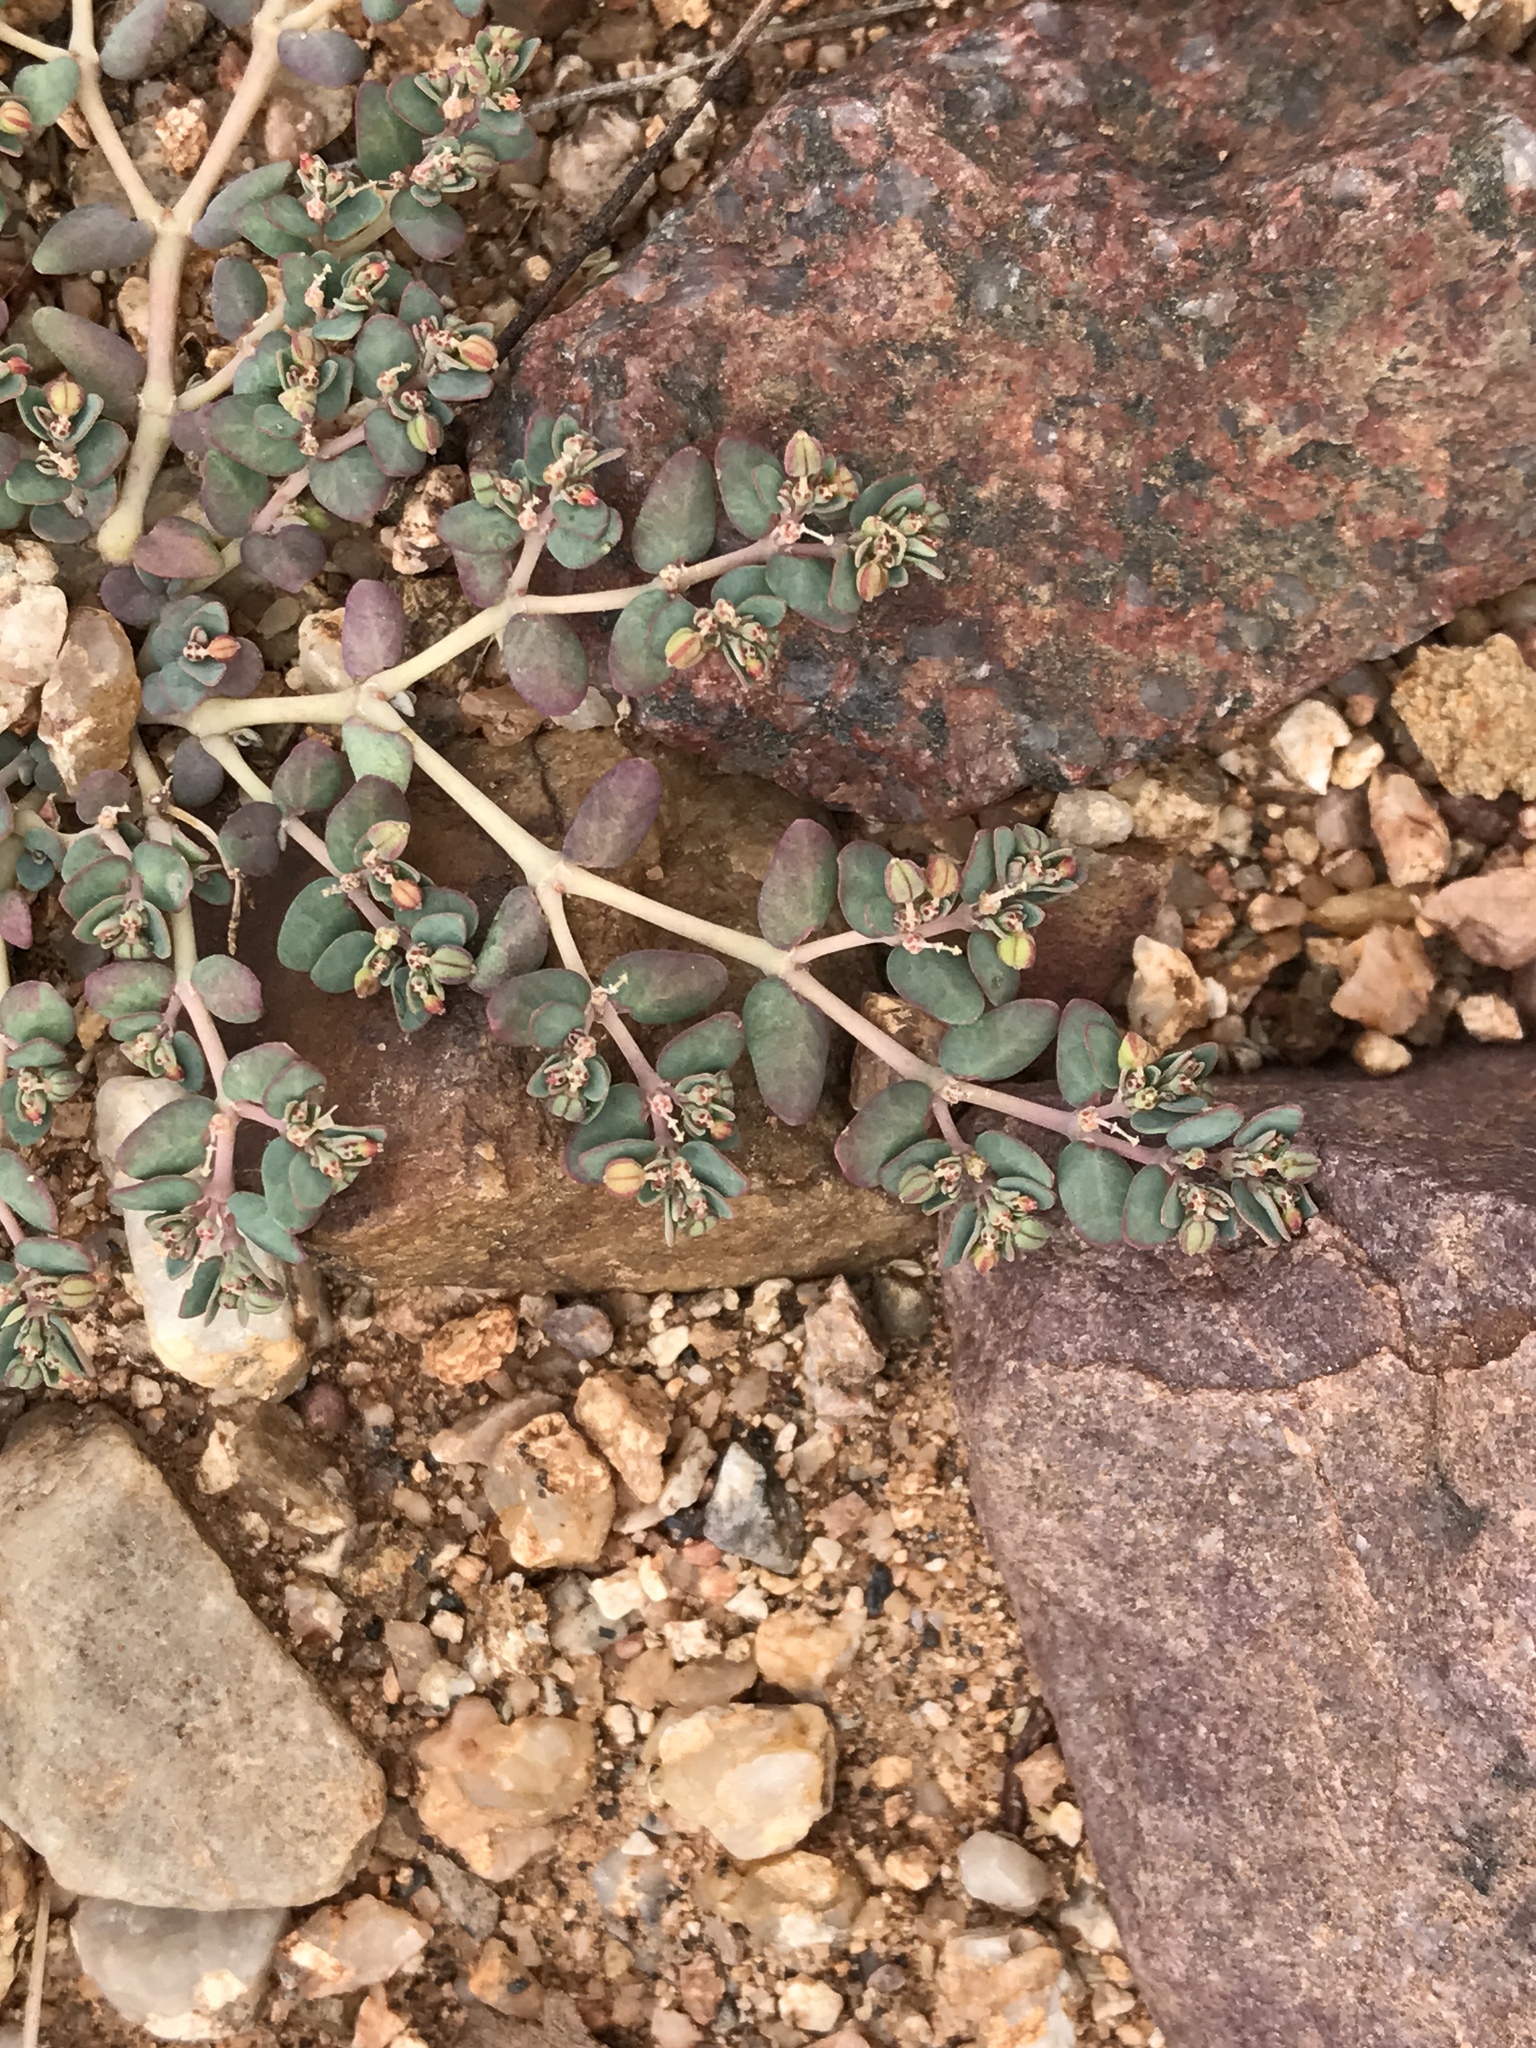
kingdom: Plantae
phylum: Tracheophyta
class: Magnoliopsida
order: Malpighiales
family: Euphorbiaceae
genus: Euphorbia
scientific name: Euphorbia micromera
